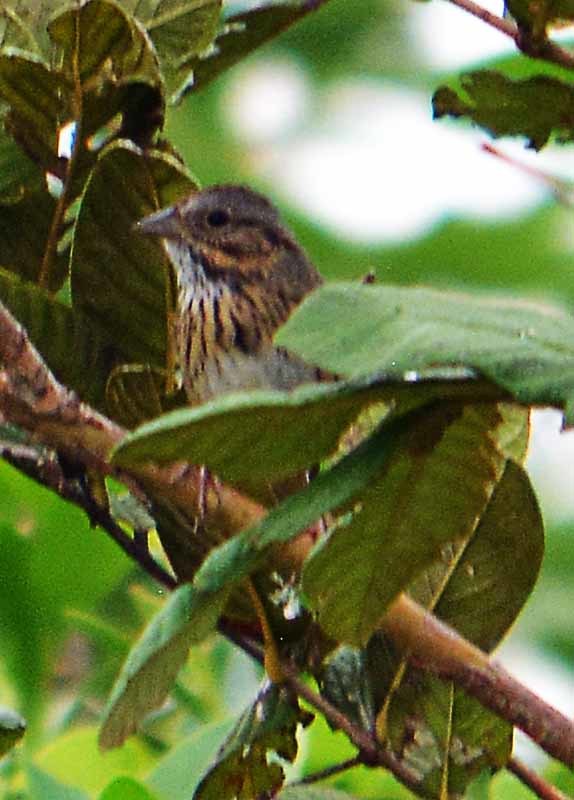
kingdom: Animalia
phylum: Chordata
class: Aves
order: Passeriformes
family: Passerellidae
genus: Melospiza
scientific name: Melospiza lincolnii
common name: Lincoln's sparrow
